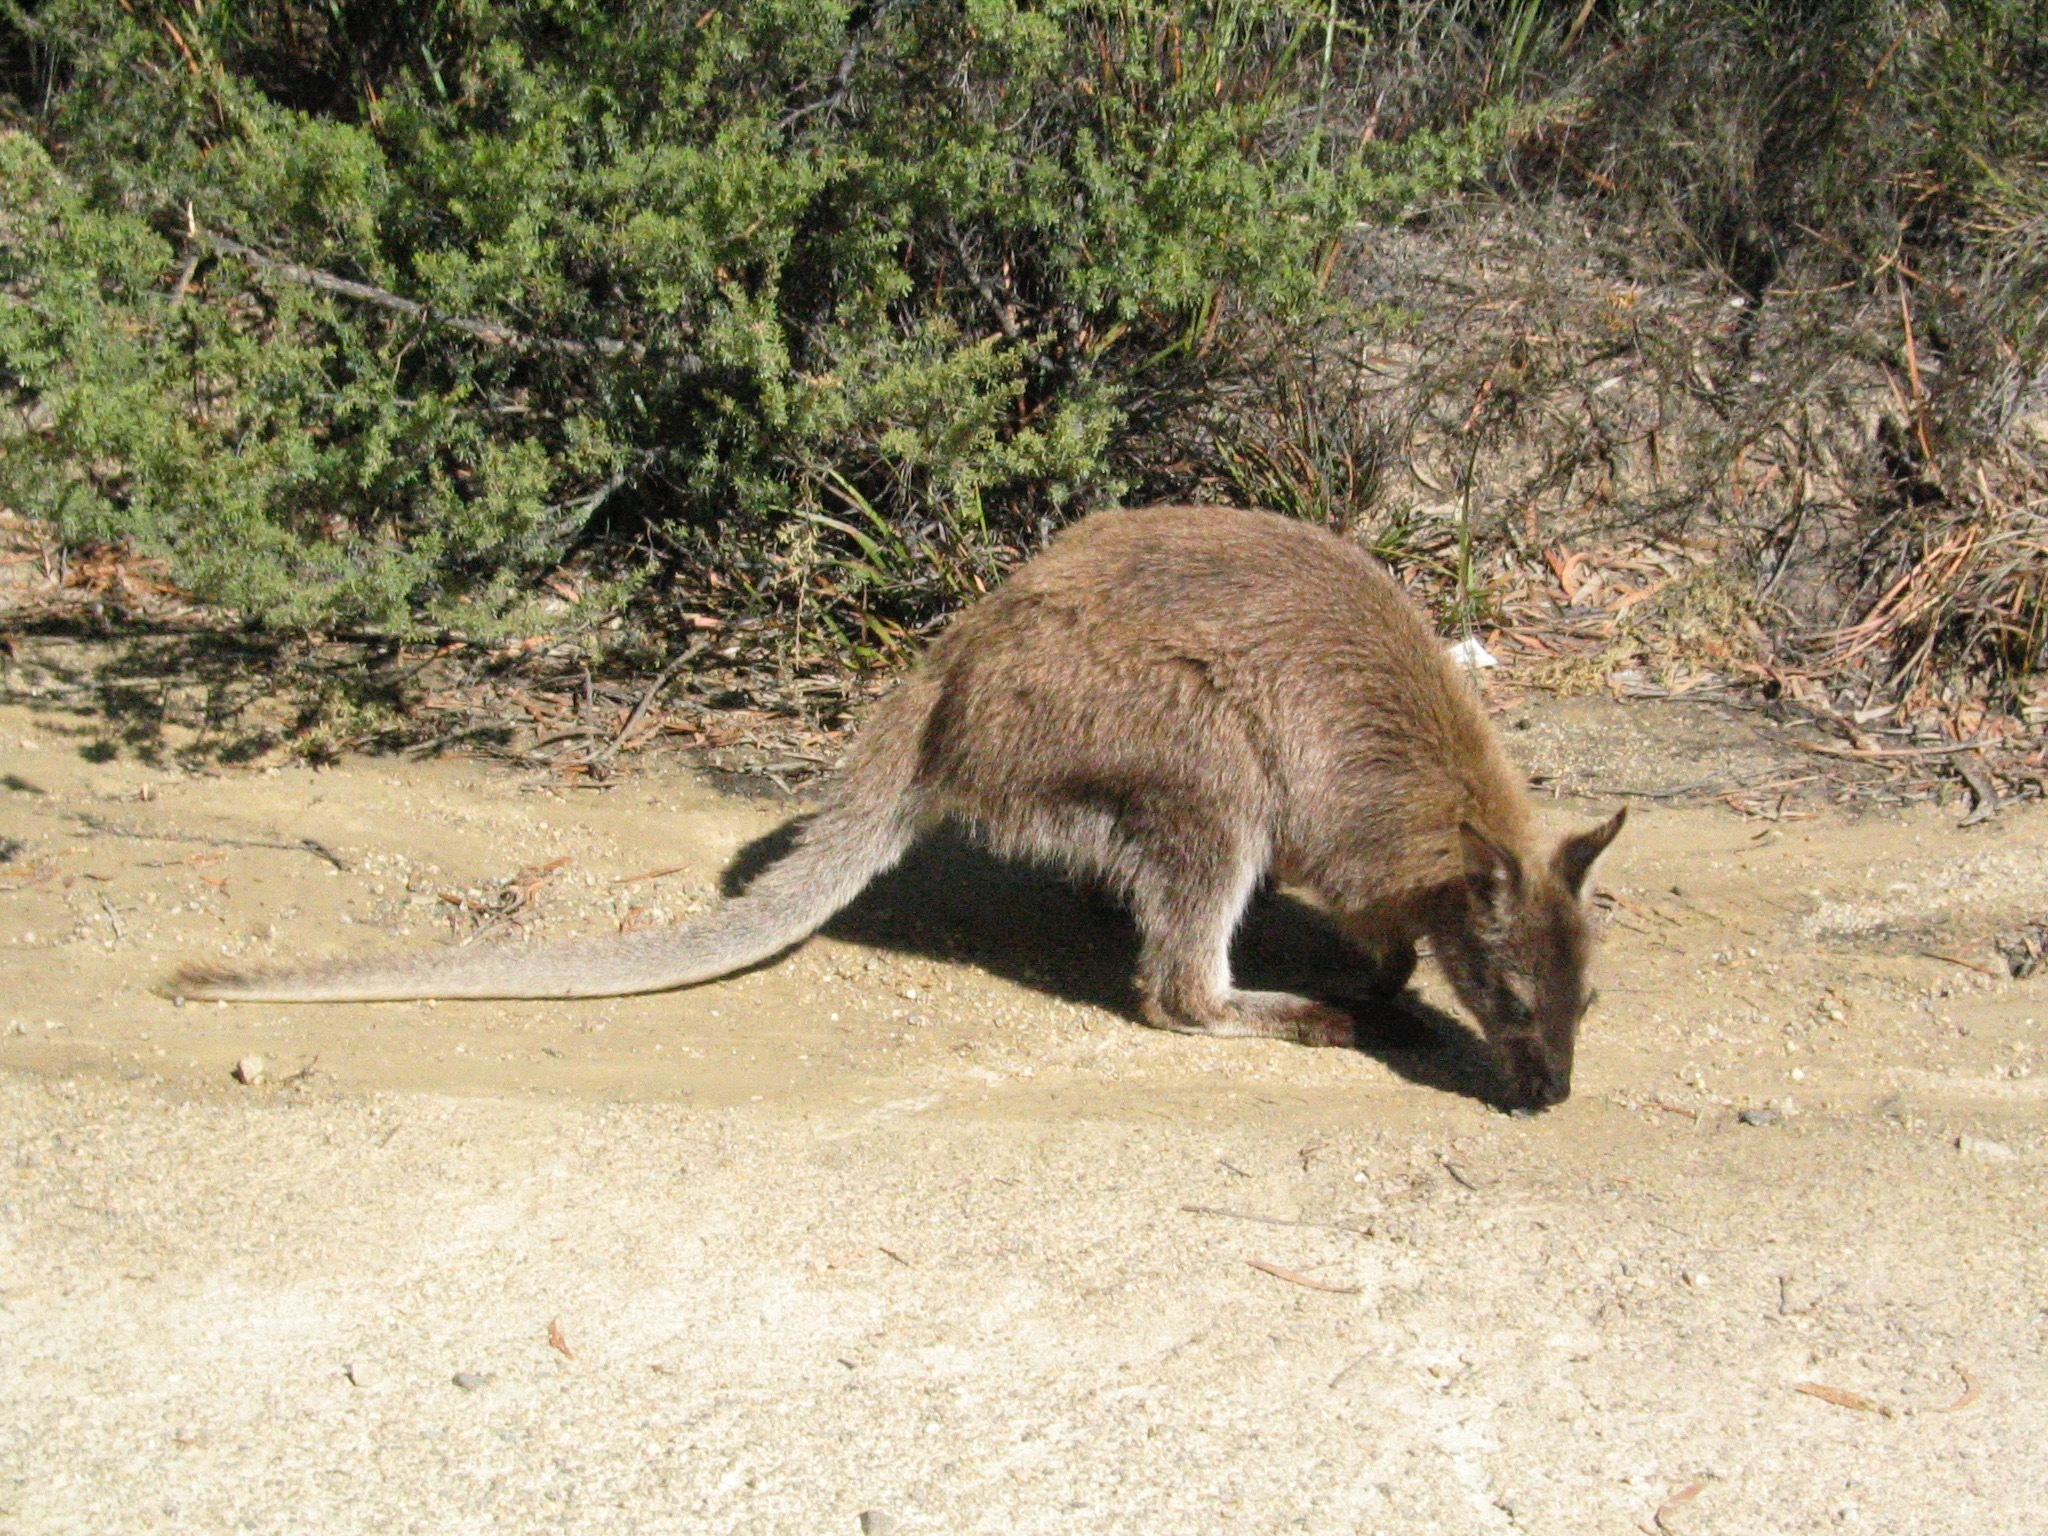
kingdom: Animalia
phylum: Chordata
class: Mammalia
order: Diprotodontia
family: Macropodidae
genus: Notamacropus
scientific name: Notamacropus rufogriseus
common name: Red-necked wallaby
